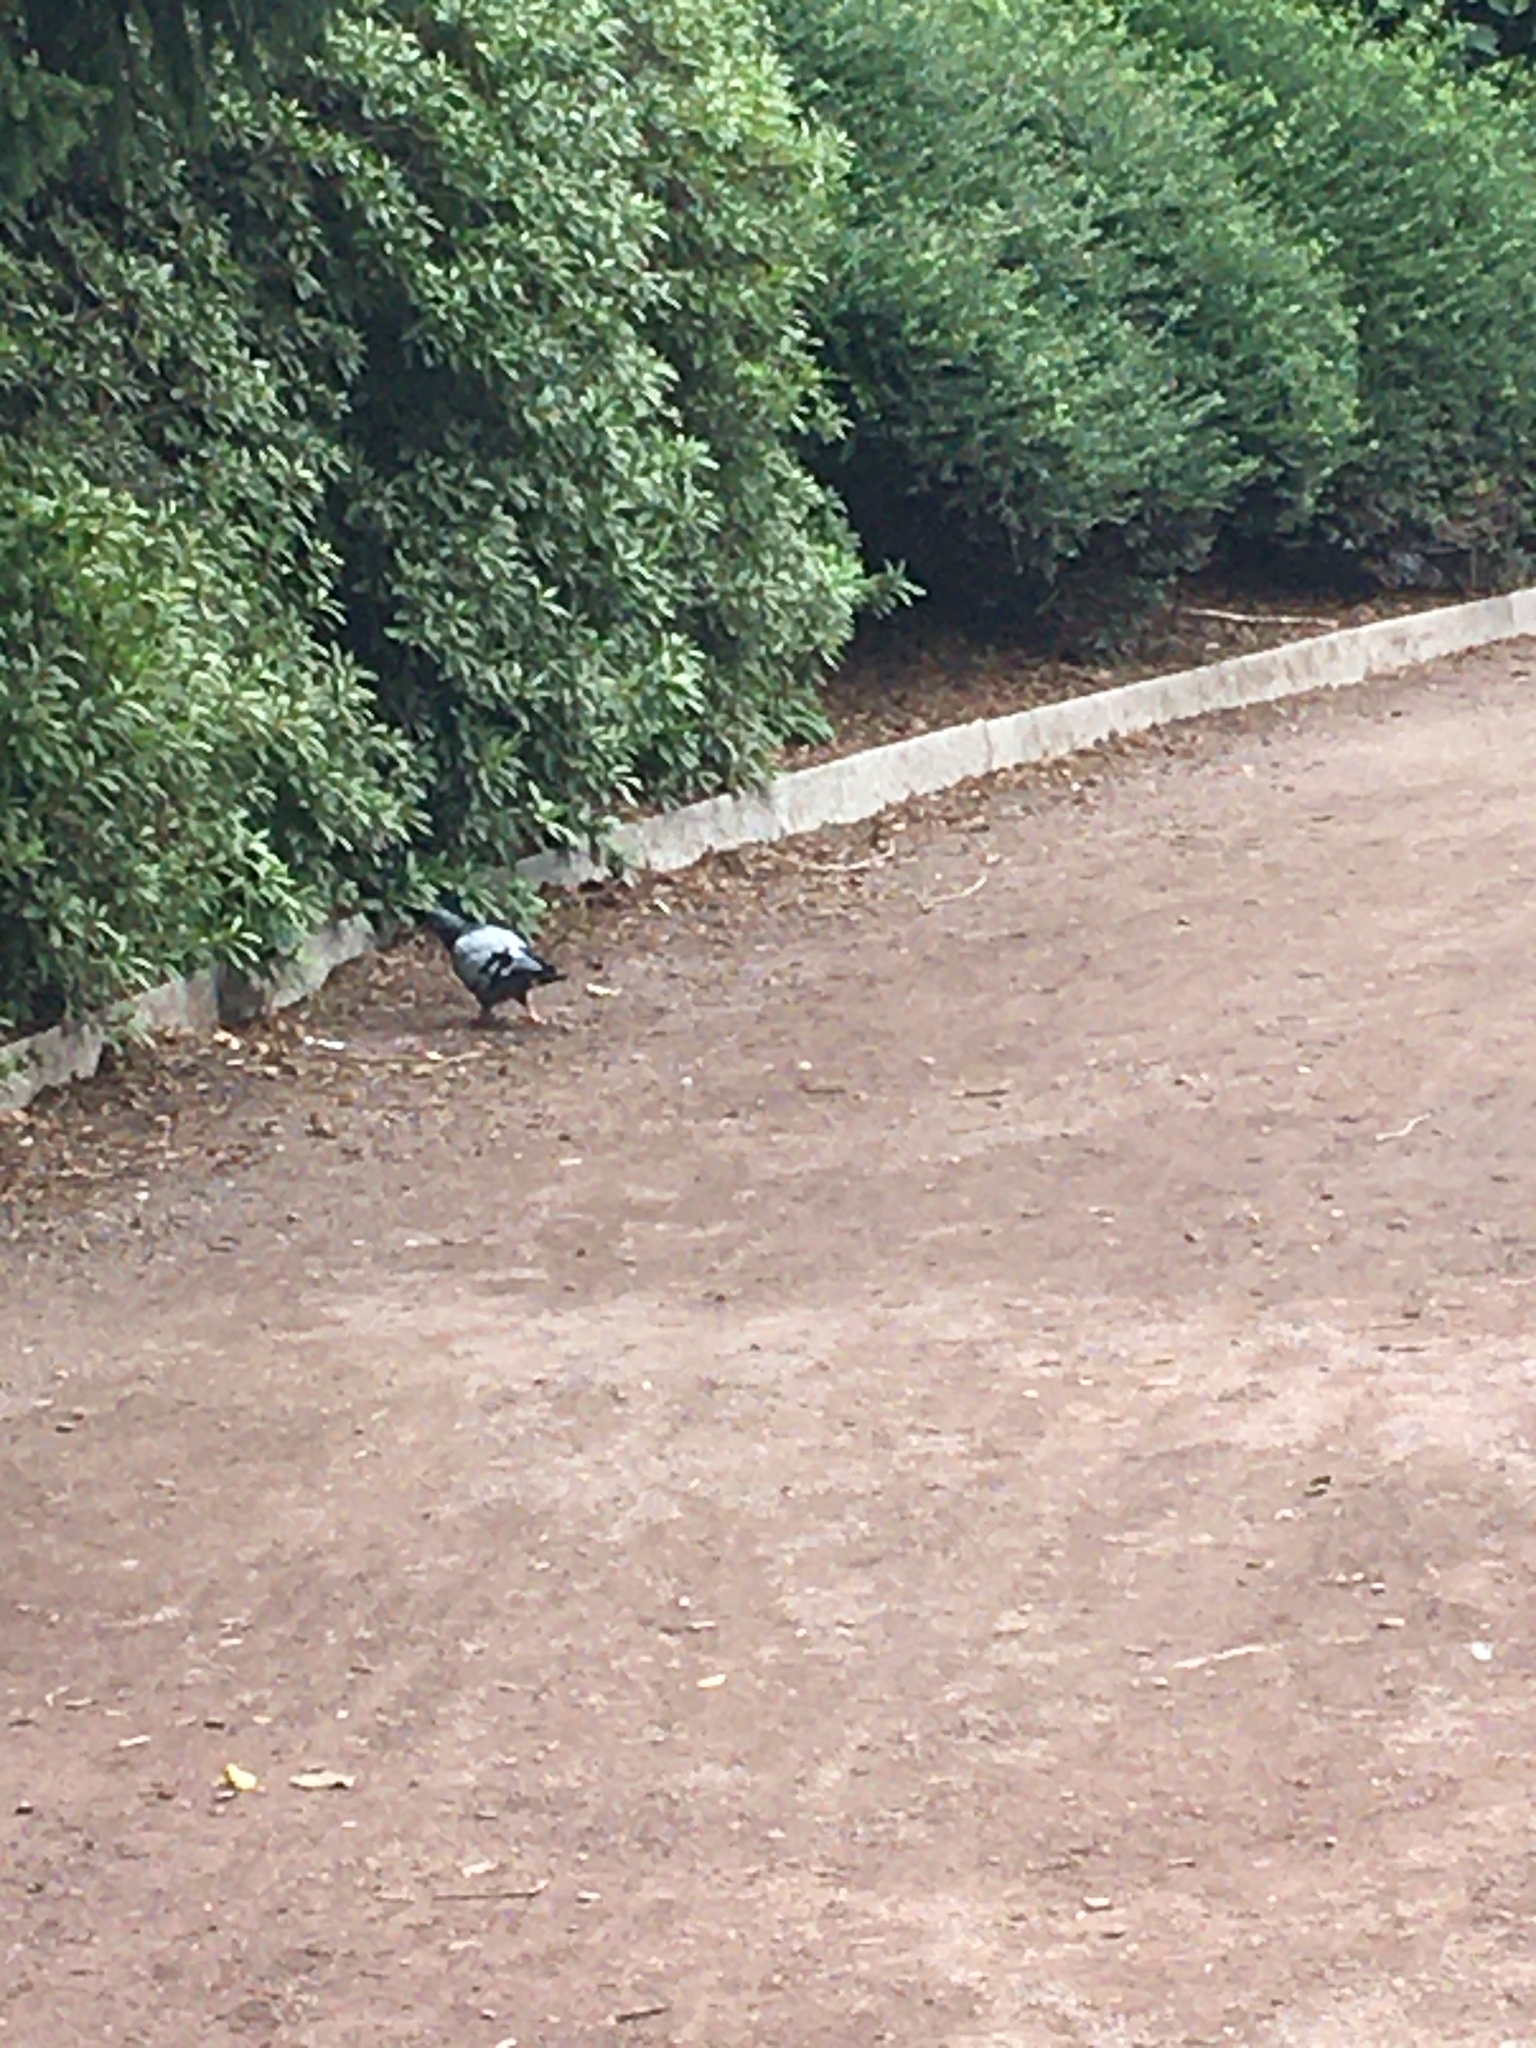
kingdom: Animalia
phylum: Chordata
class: Aves
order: Columbiformes
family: Columbidae
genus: Columba
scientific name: Columba livia
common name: Rock pigeon
